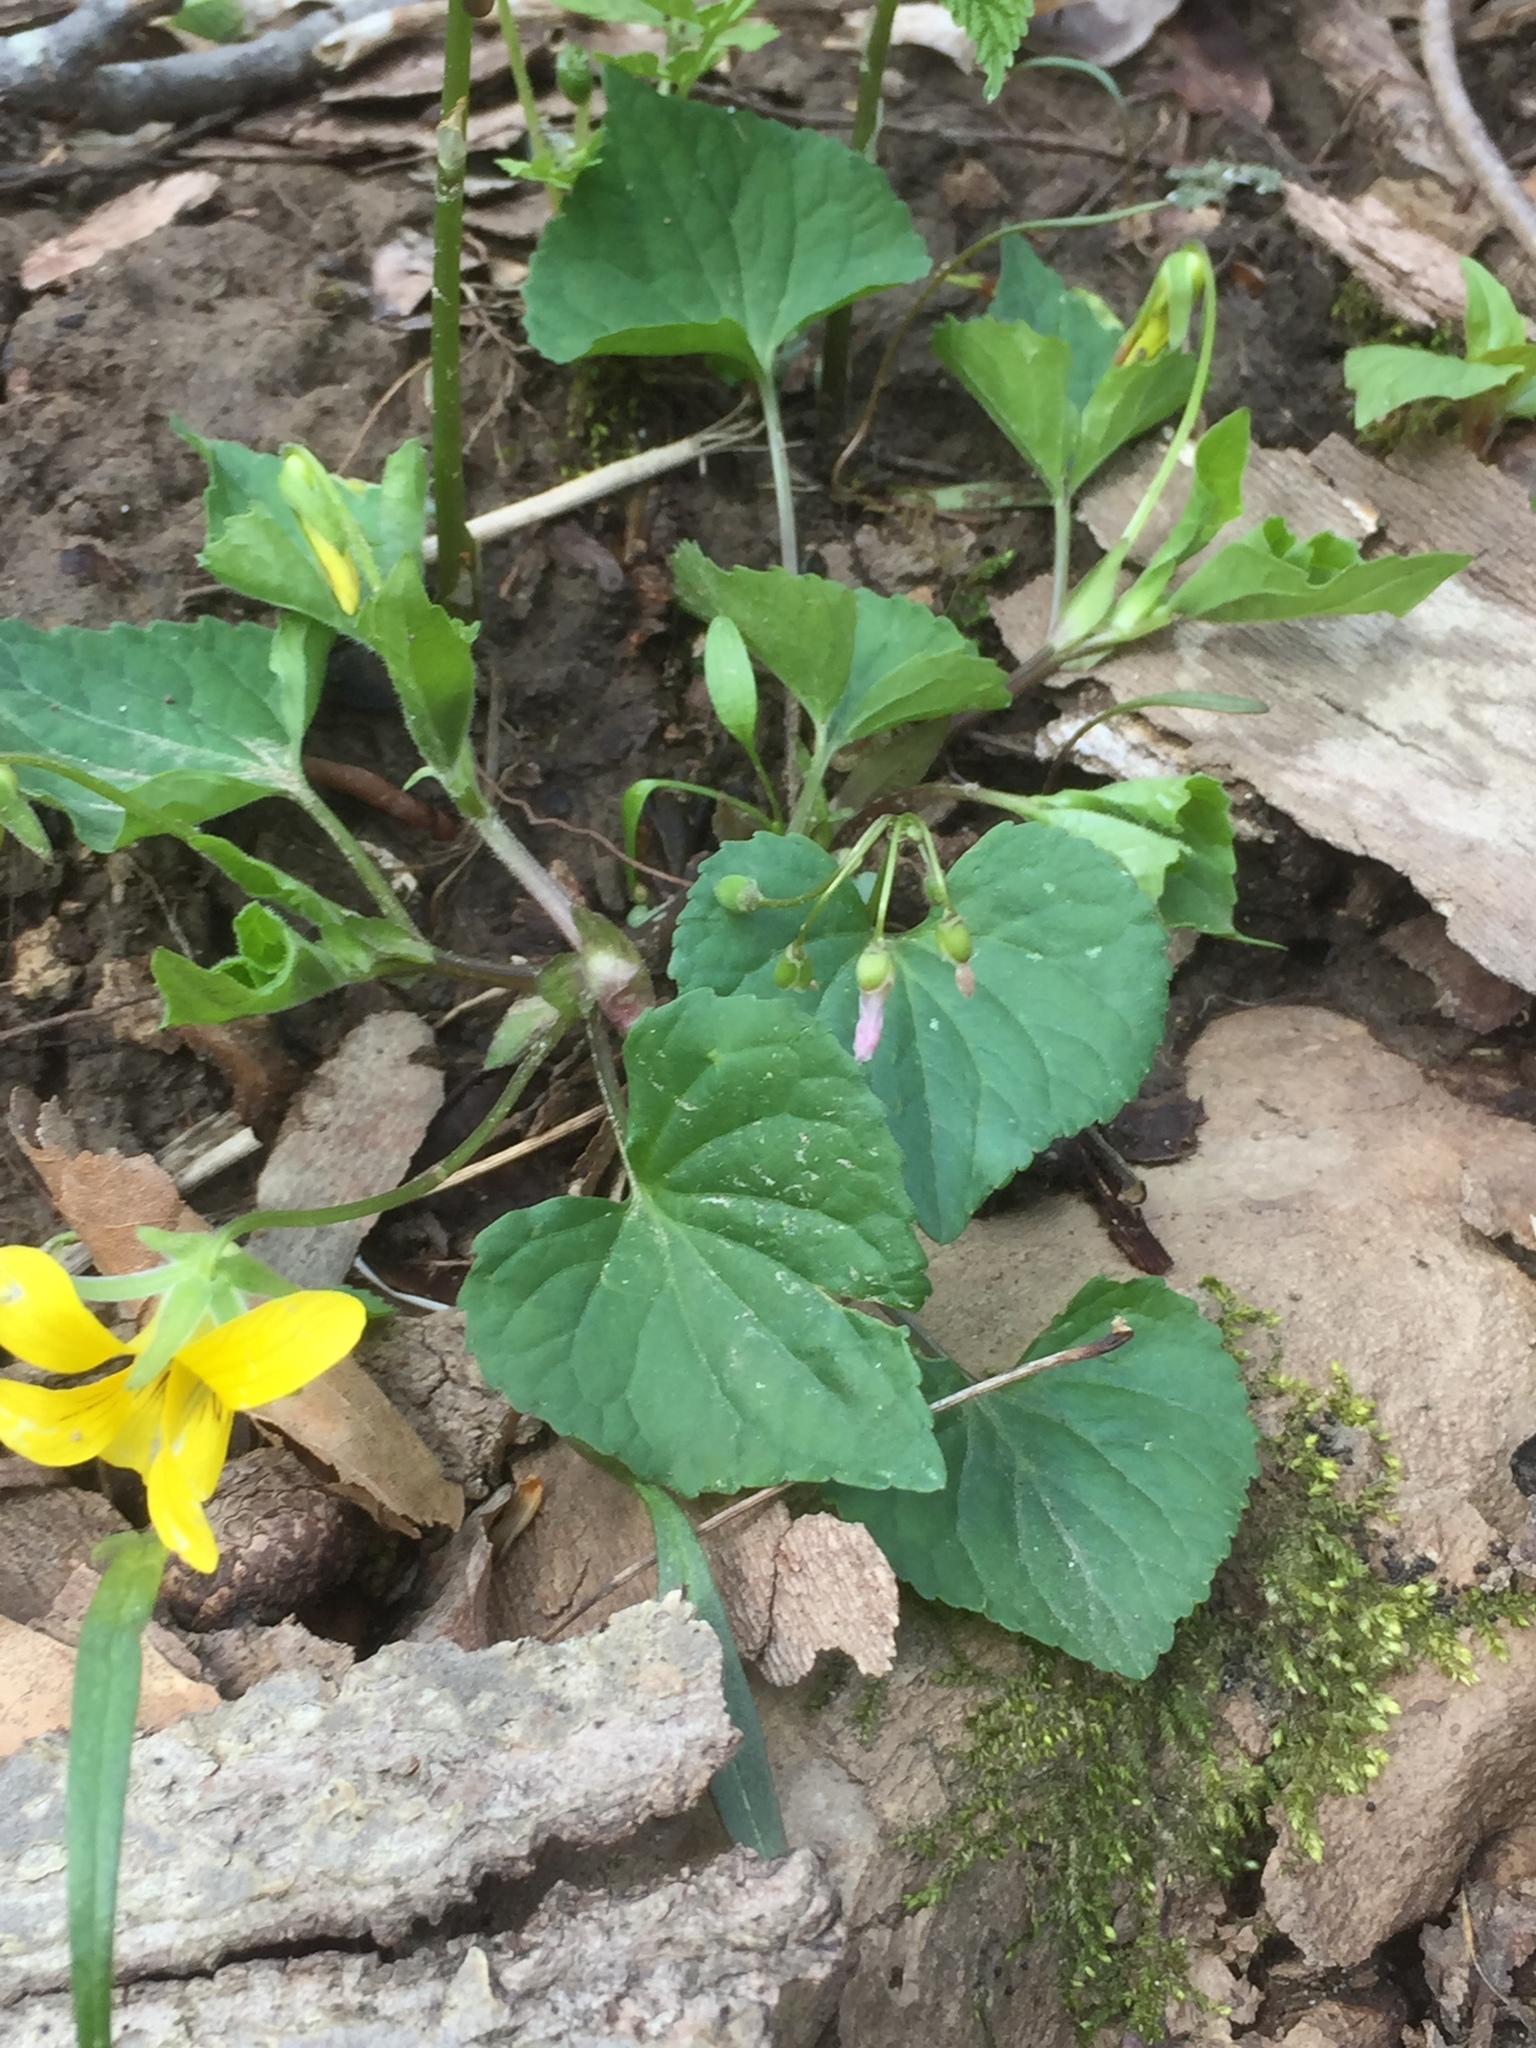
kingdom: Plantae
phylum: Tracheophyta
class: Magnoliopsida
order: Malpighiales
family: Violaceae
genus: Viola
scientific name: Viola eriocarpa
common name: Smooth yellow violet
